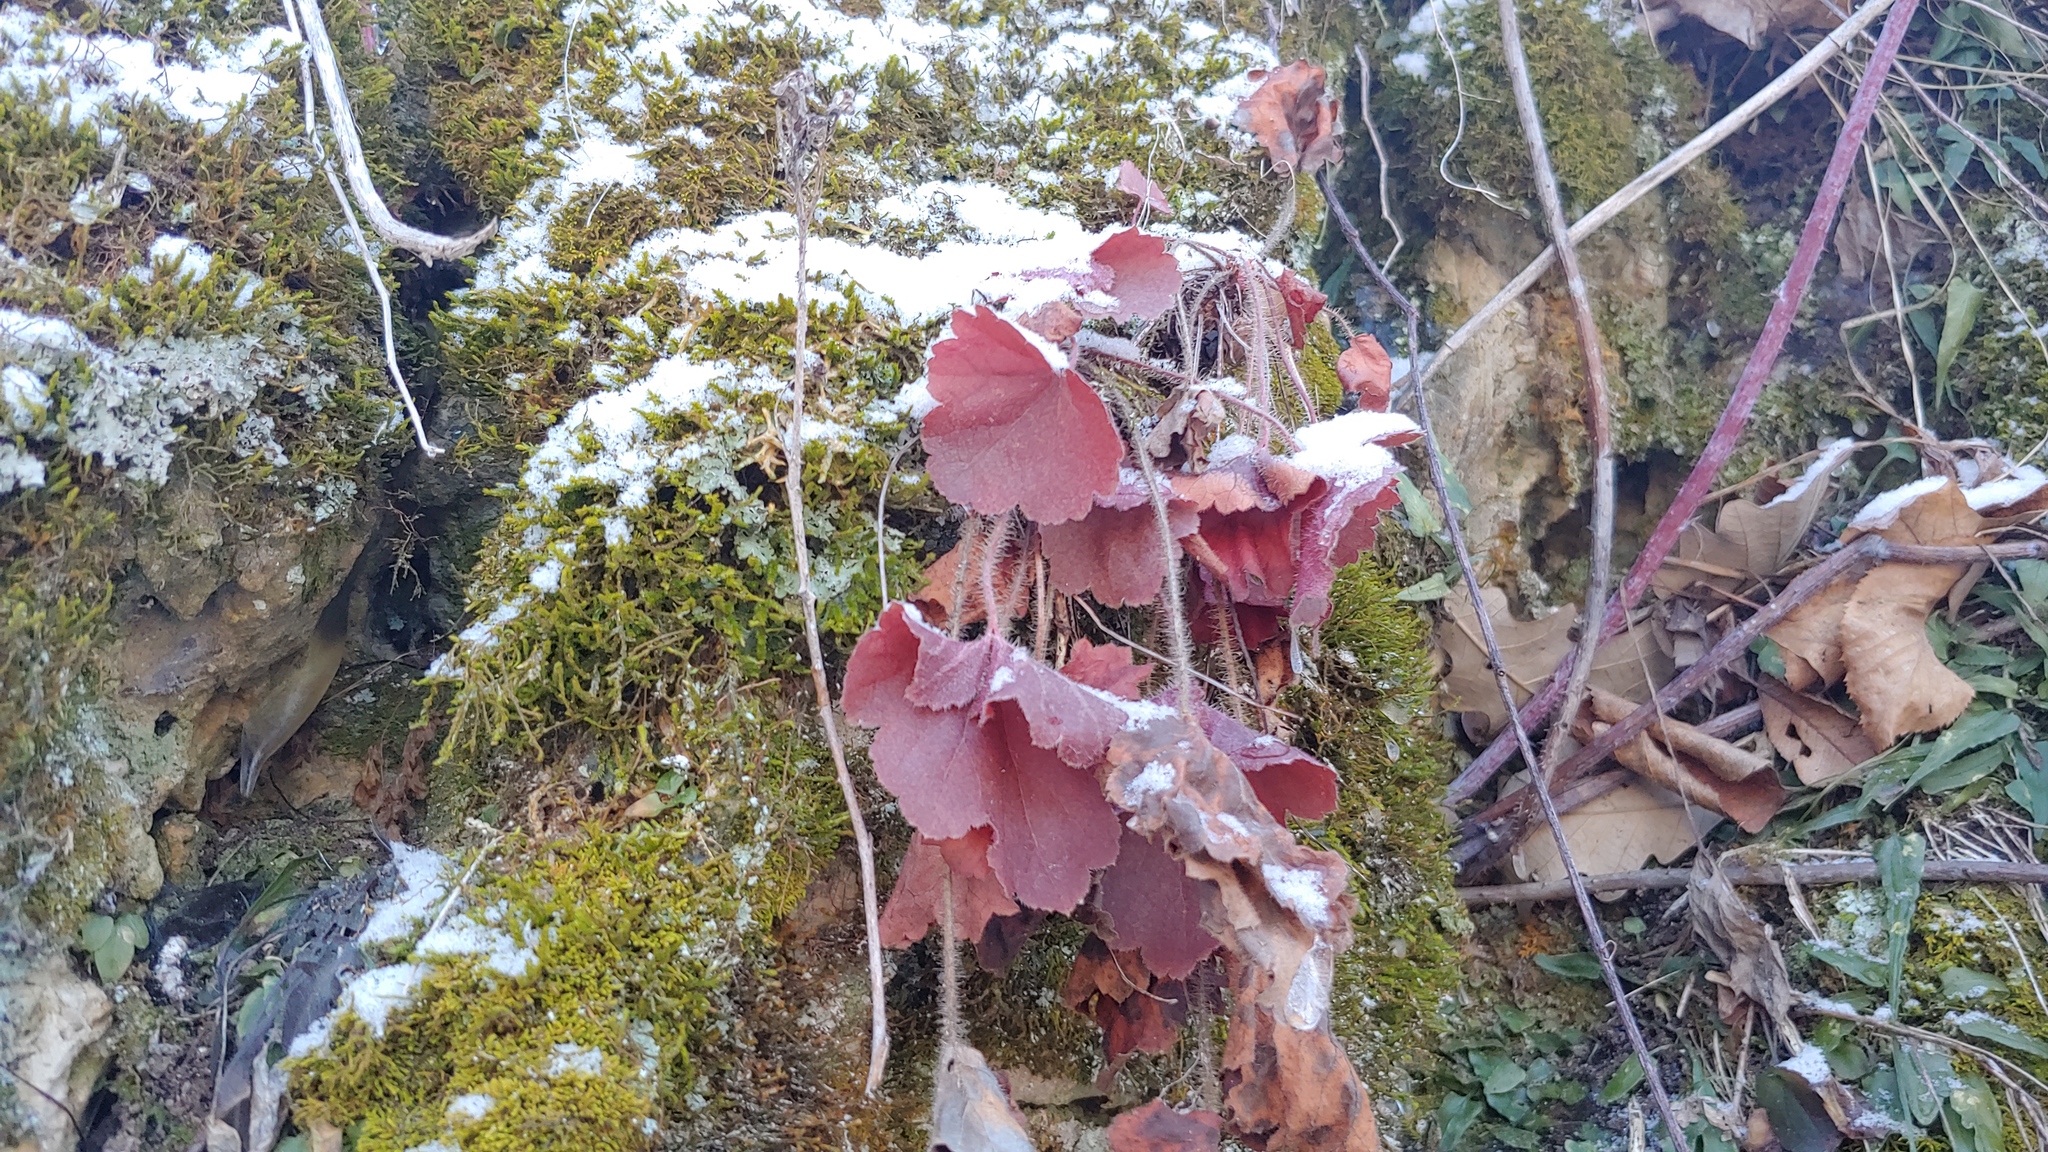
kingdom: Plantae
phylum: Tracheophyta
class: Magnoliopsida
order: Saxifragales
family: Saxifragaceae
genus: Heuchera
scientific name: Heuchera richardsonii
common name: Richardson's alumroot
